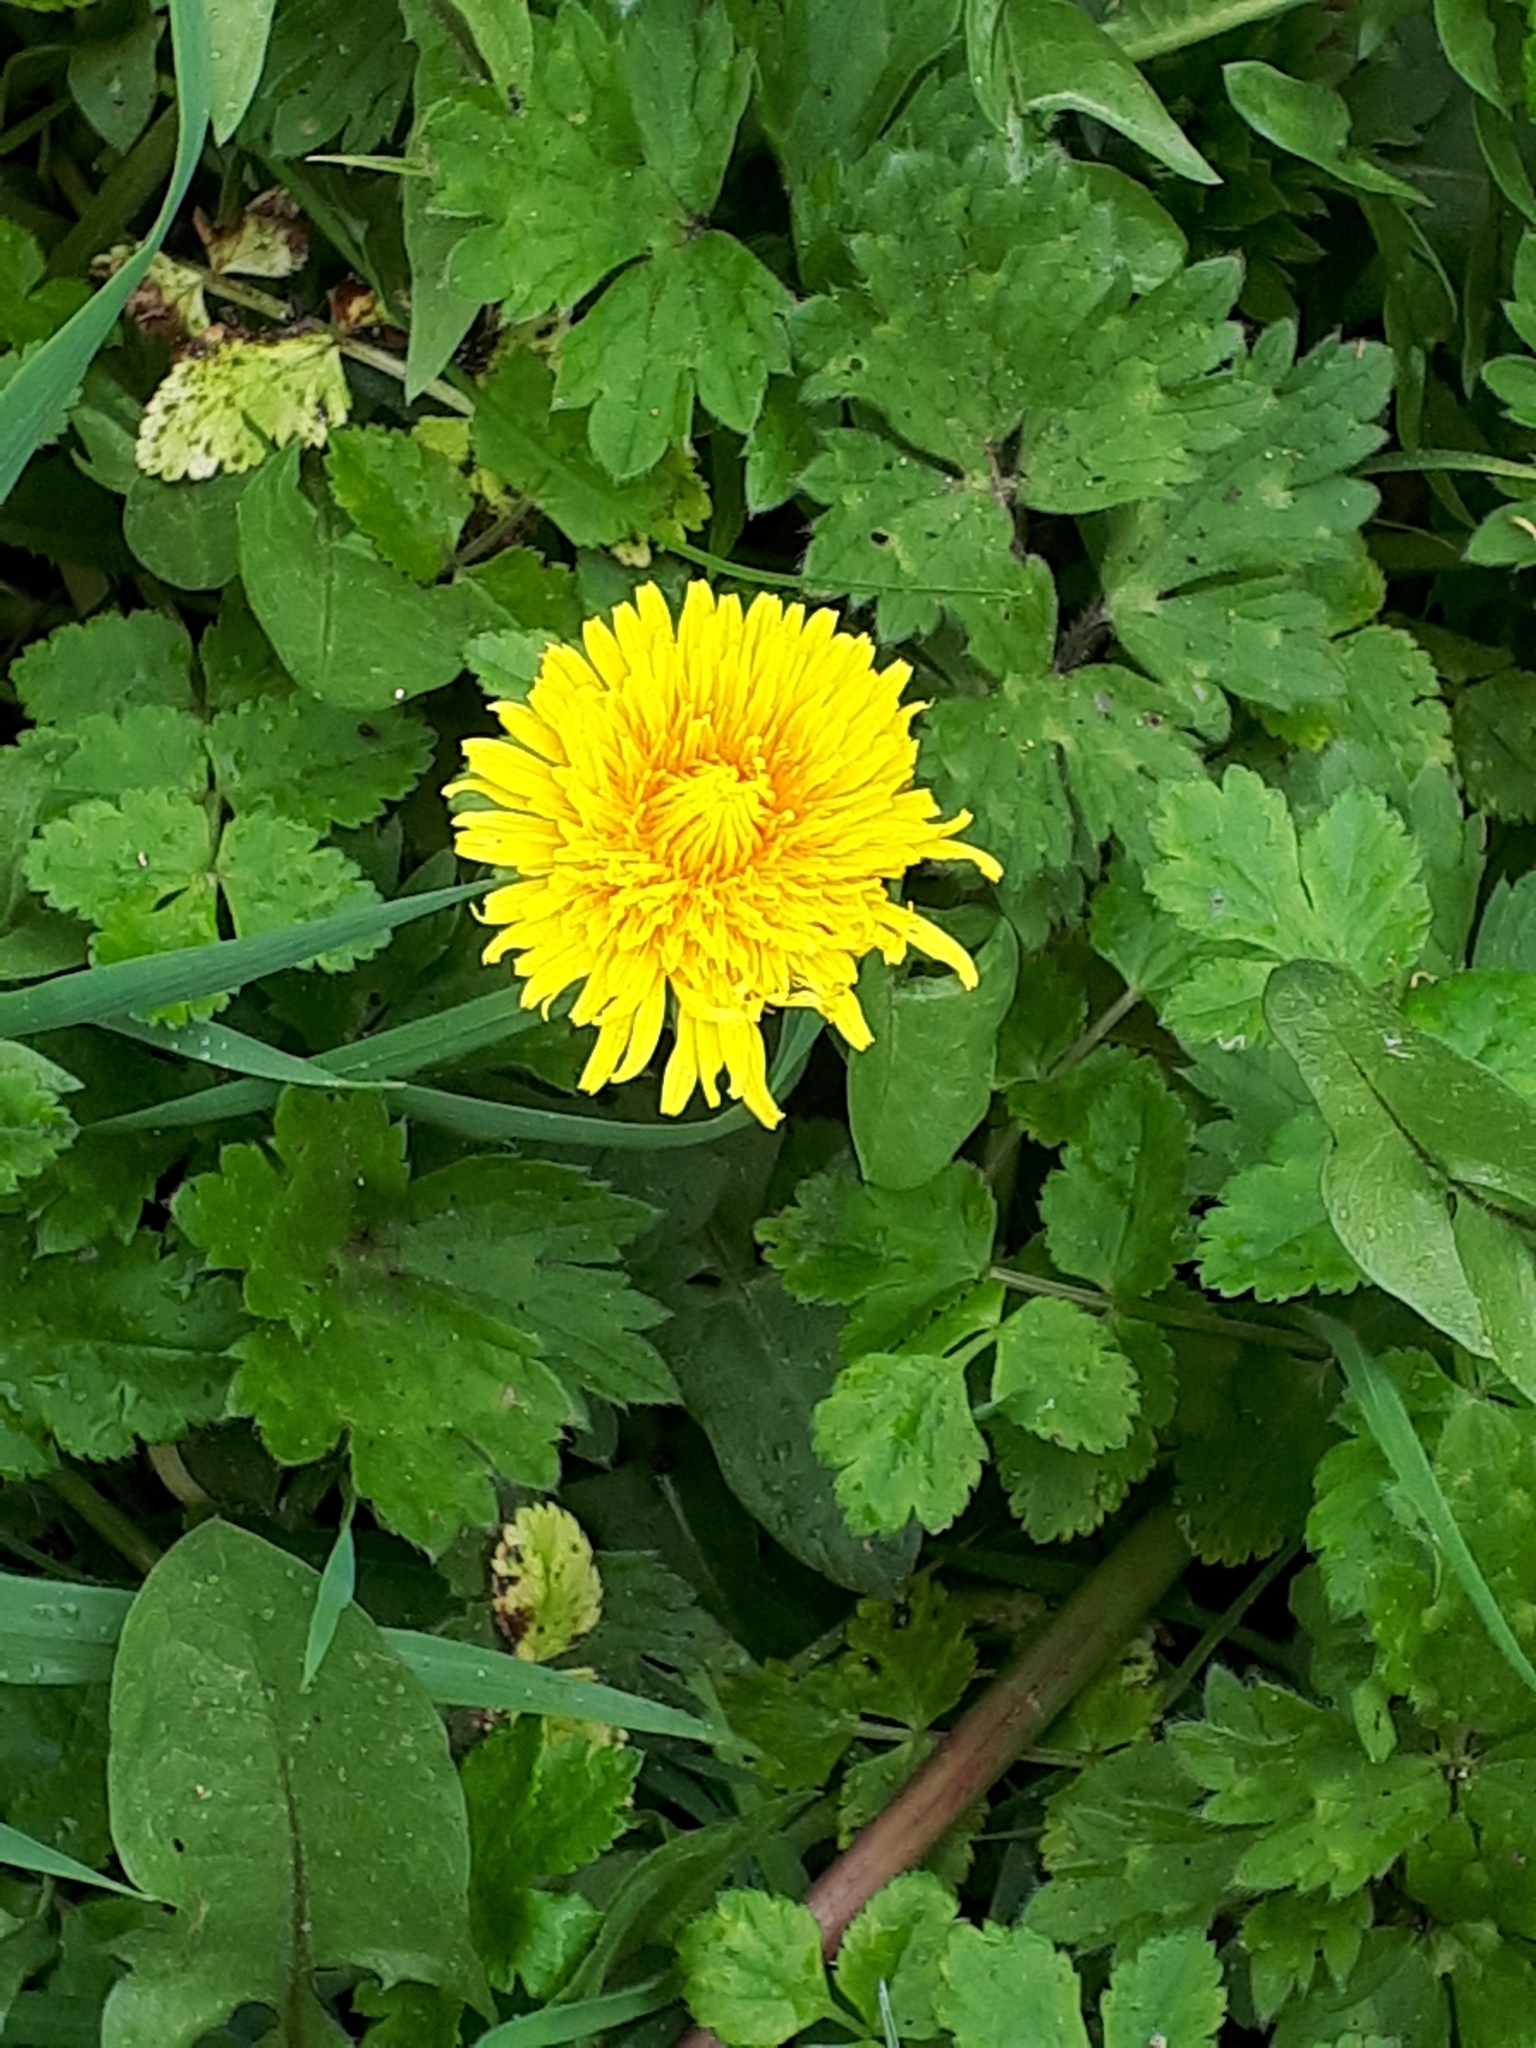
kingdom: Plantae
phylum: Tracheophyta
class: Magnoliopsida
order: Asterales
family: Asteraceae
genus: Taraxacum
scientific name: Taraxacum officinale
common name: Common dandelion
